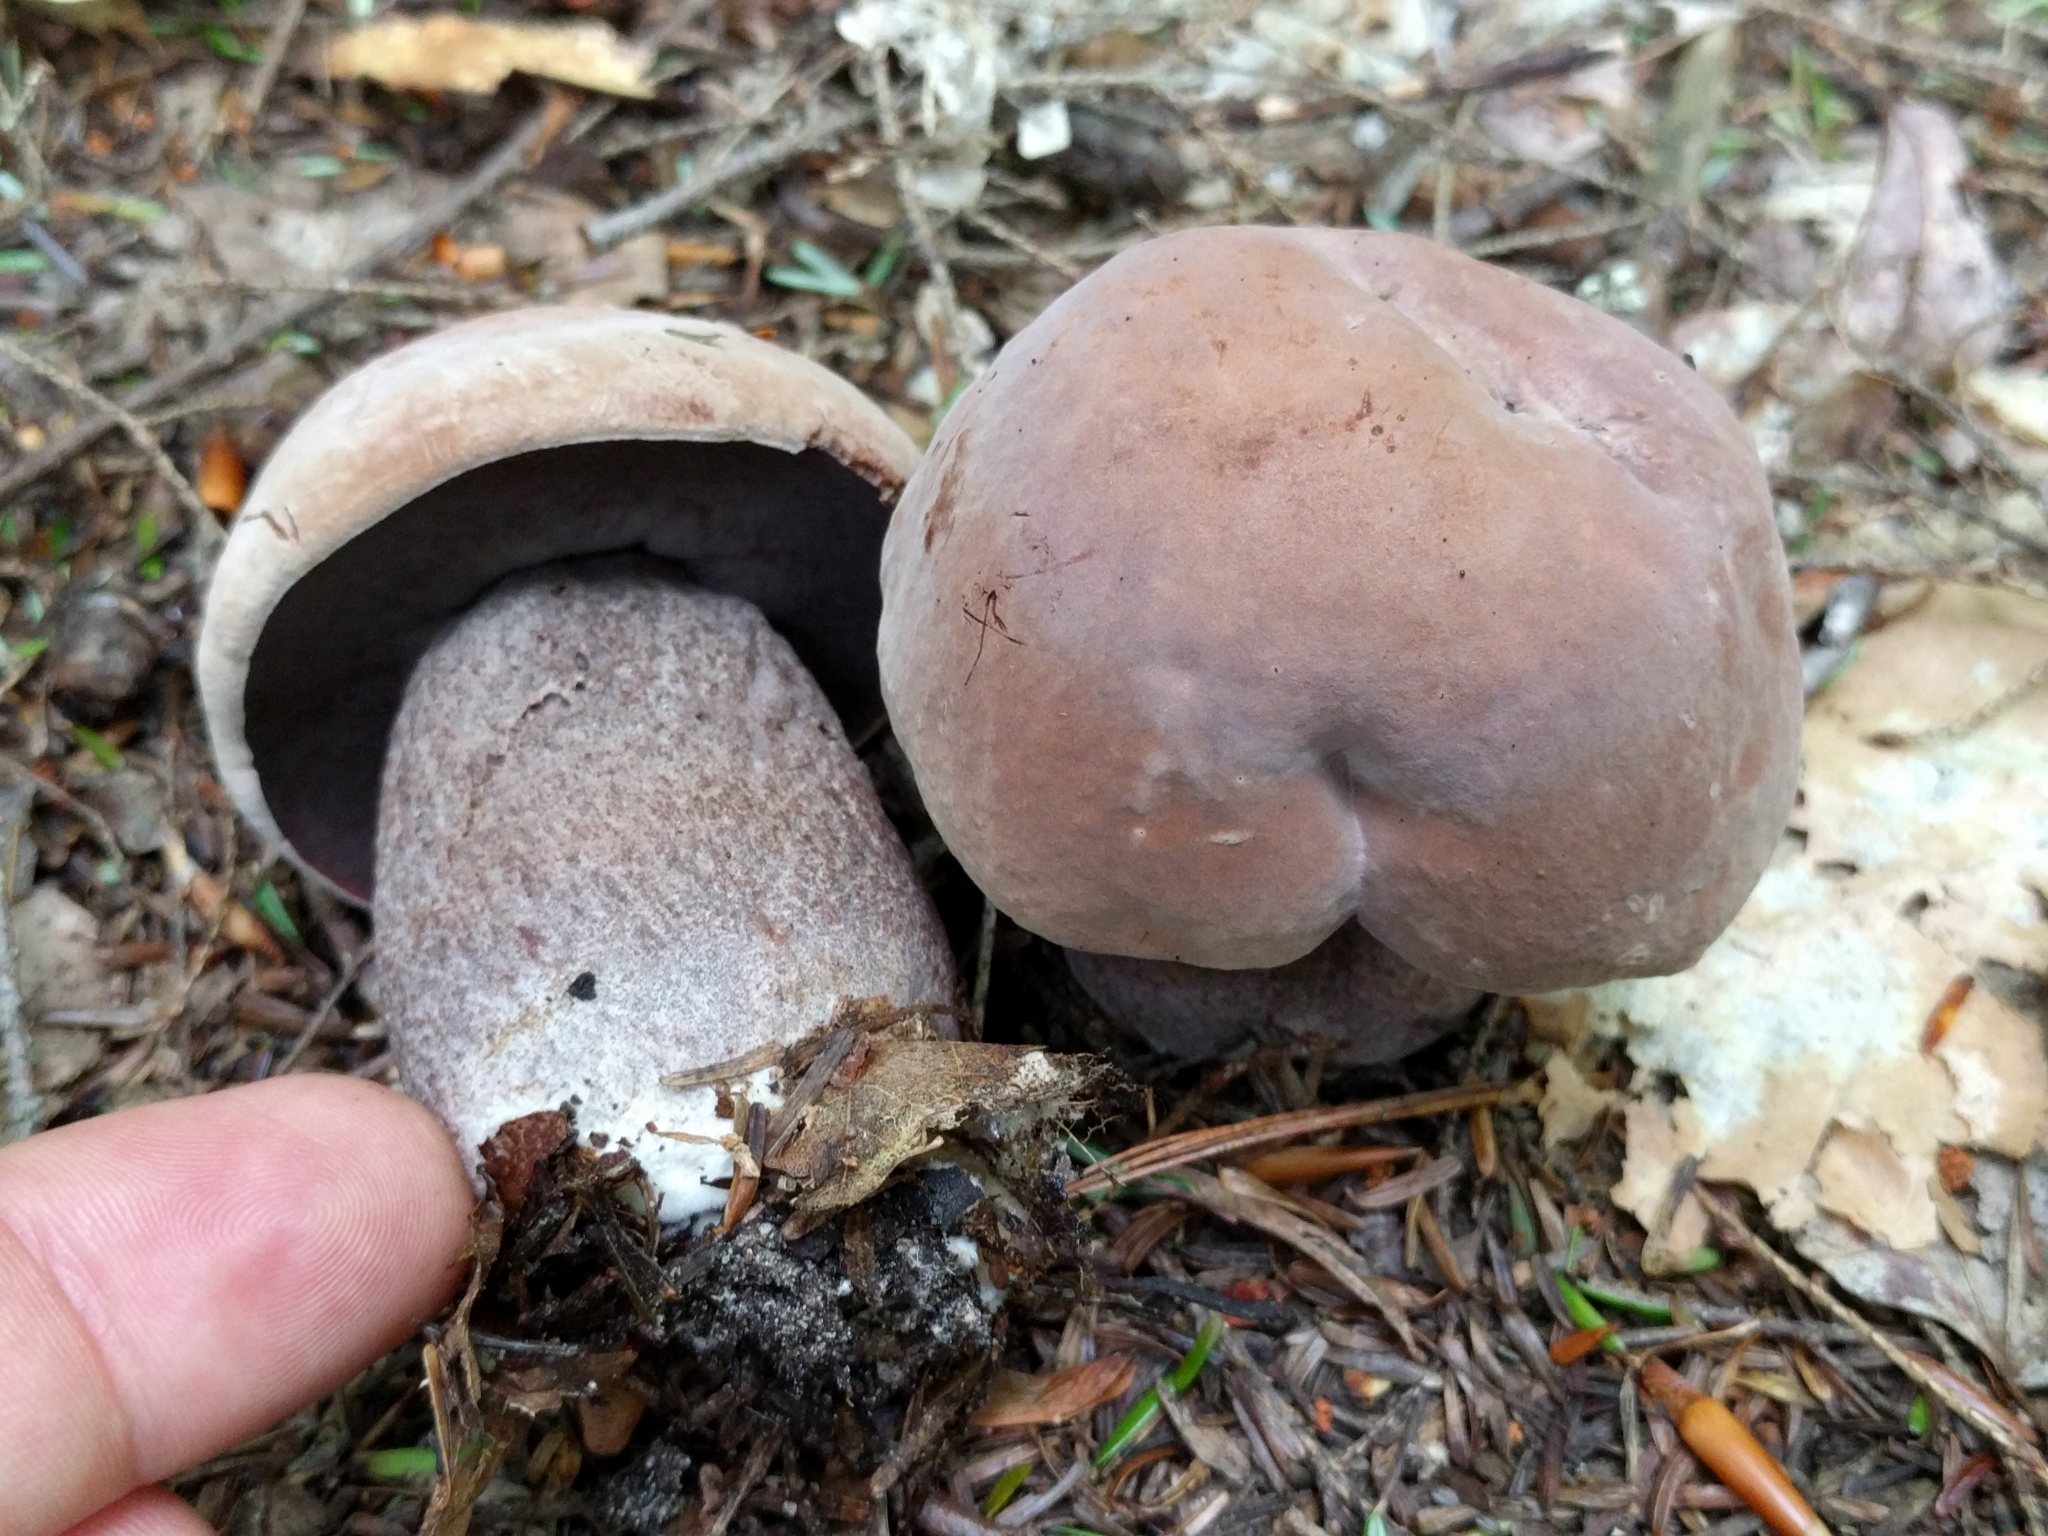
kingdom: Fungi
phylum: Basidiomycota
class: Agaricomycetes
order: Boletales
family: Boletaceae
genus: Sutorius
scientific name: Sutorius eximius
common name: Lilac-brown bolete
